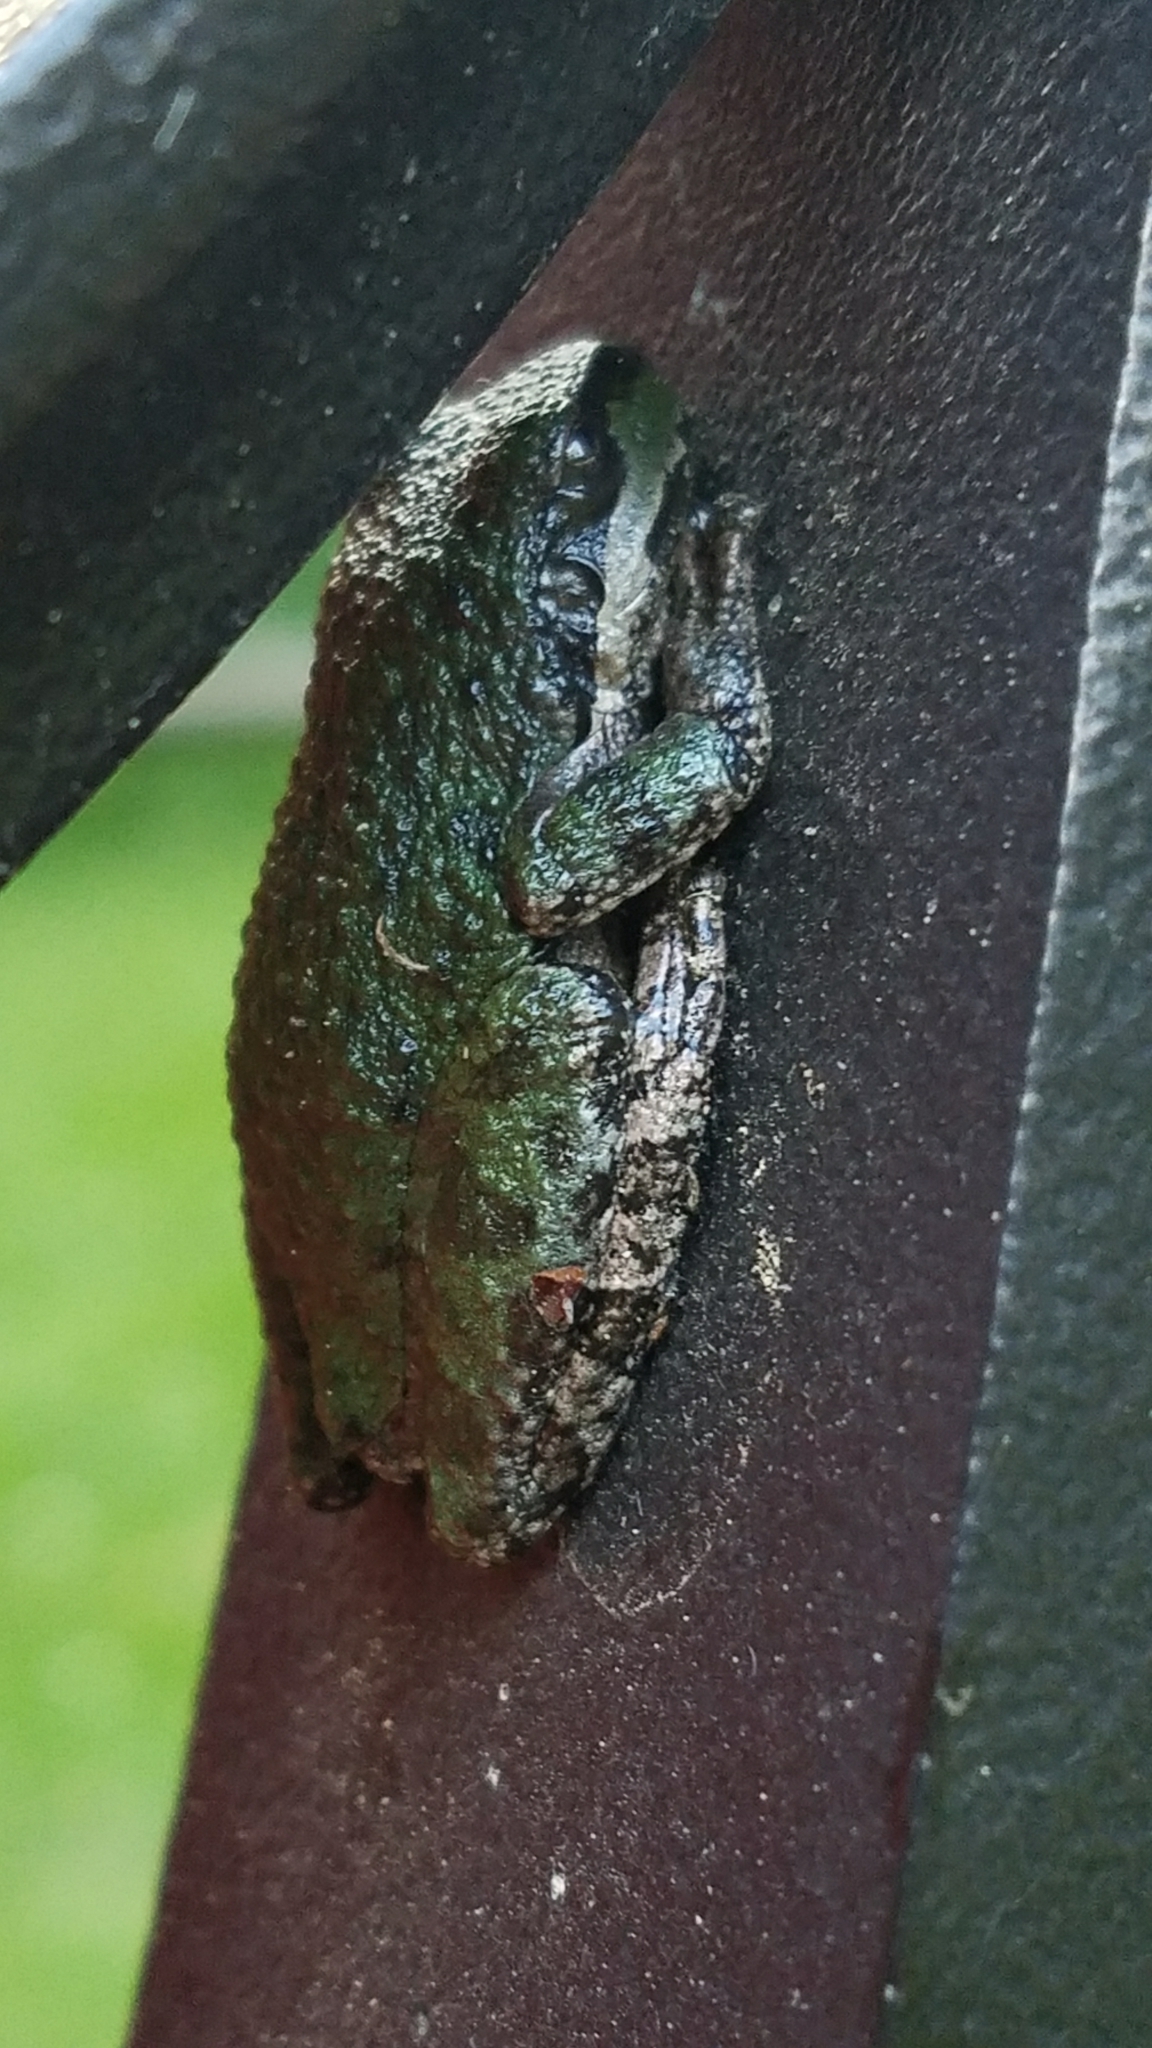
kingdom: Animalia
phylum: Chordata
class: Amphibia
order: Anura
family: Hylidae
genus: Pseudacris
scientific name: Pseudacris regilla
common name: Pacific chorus frog
